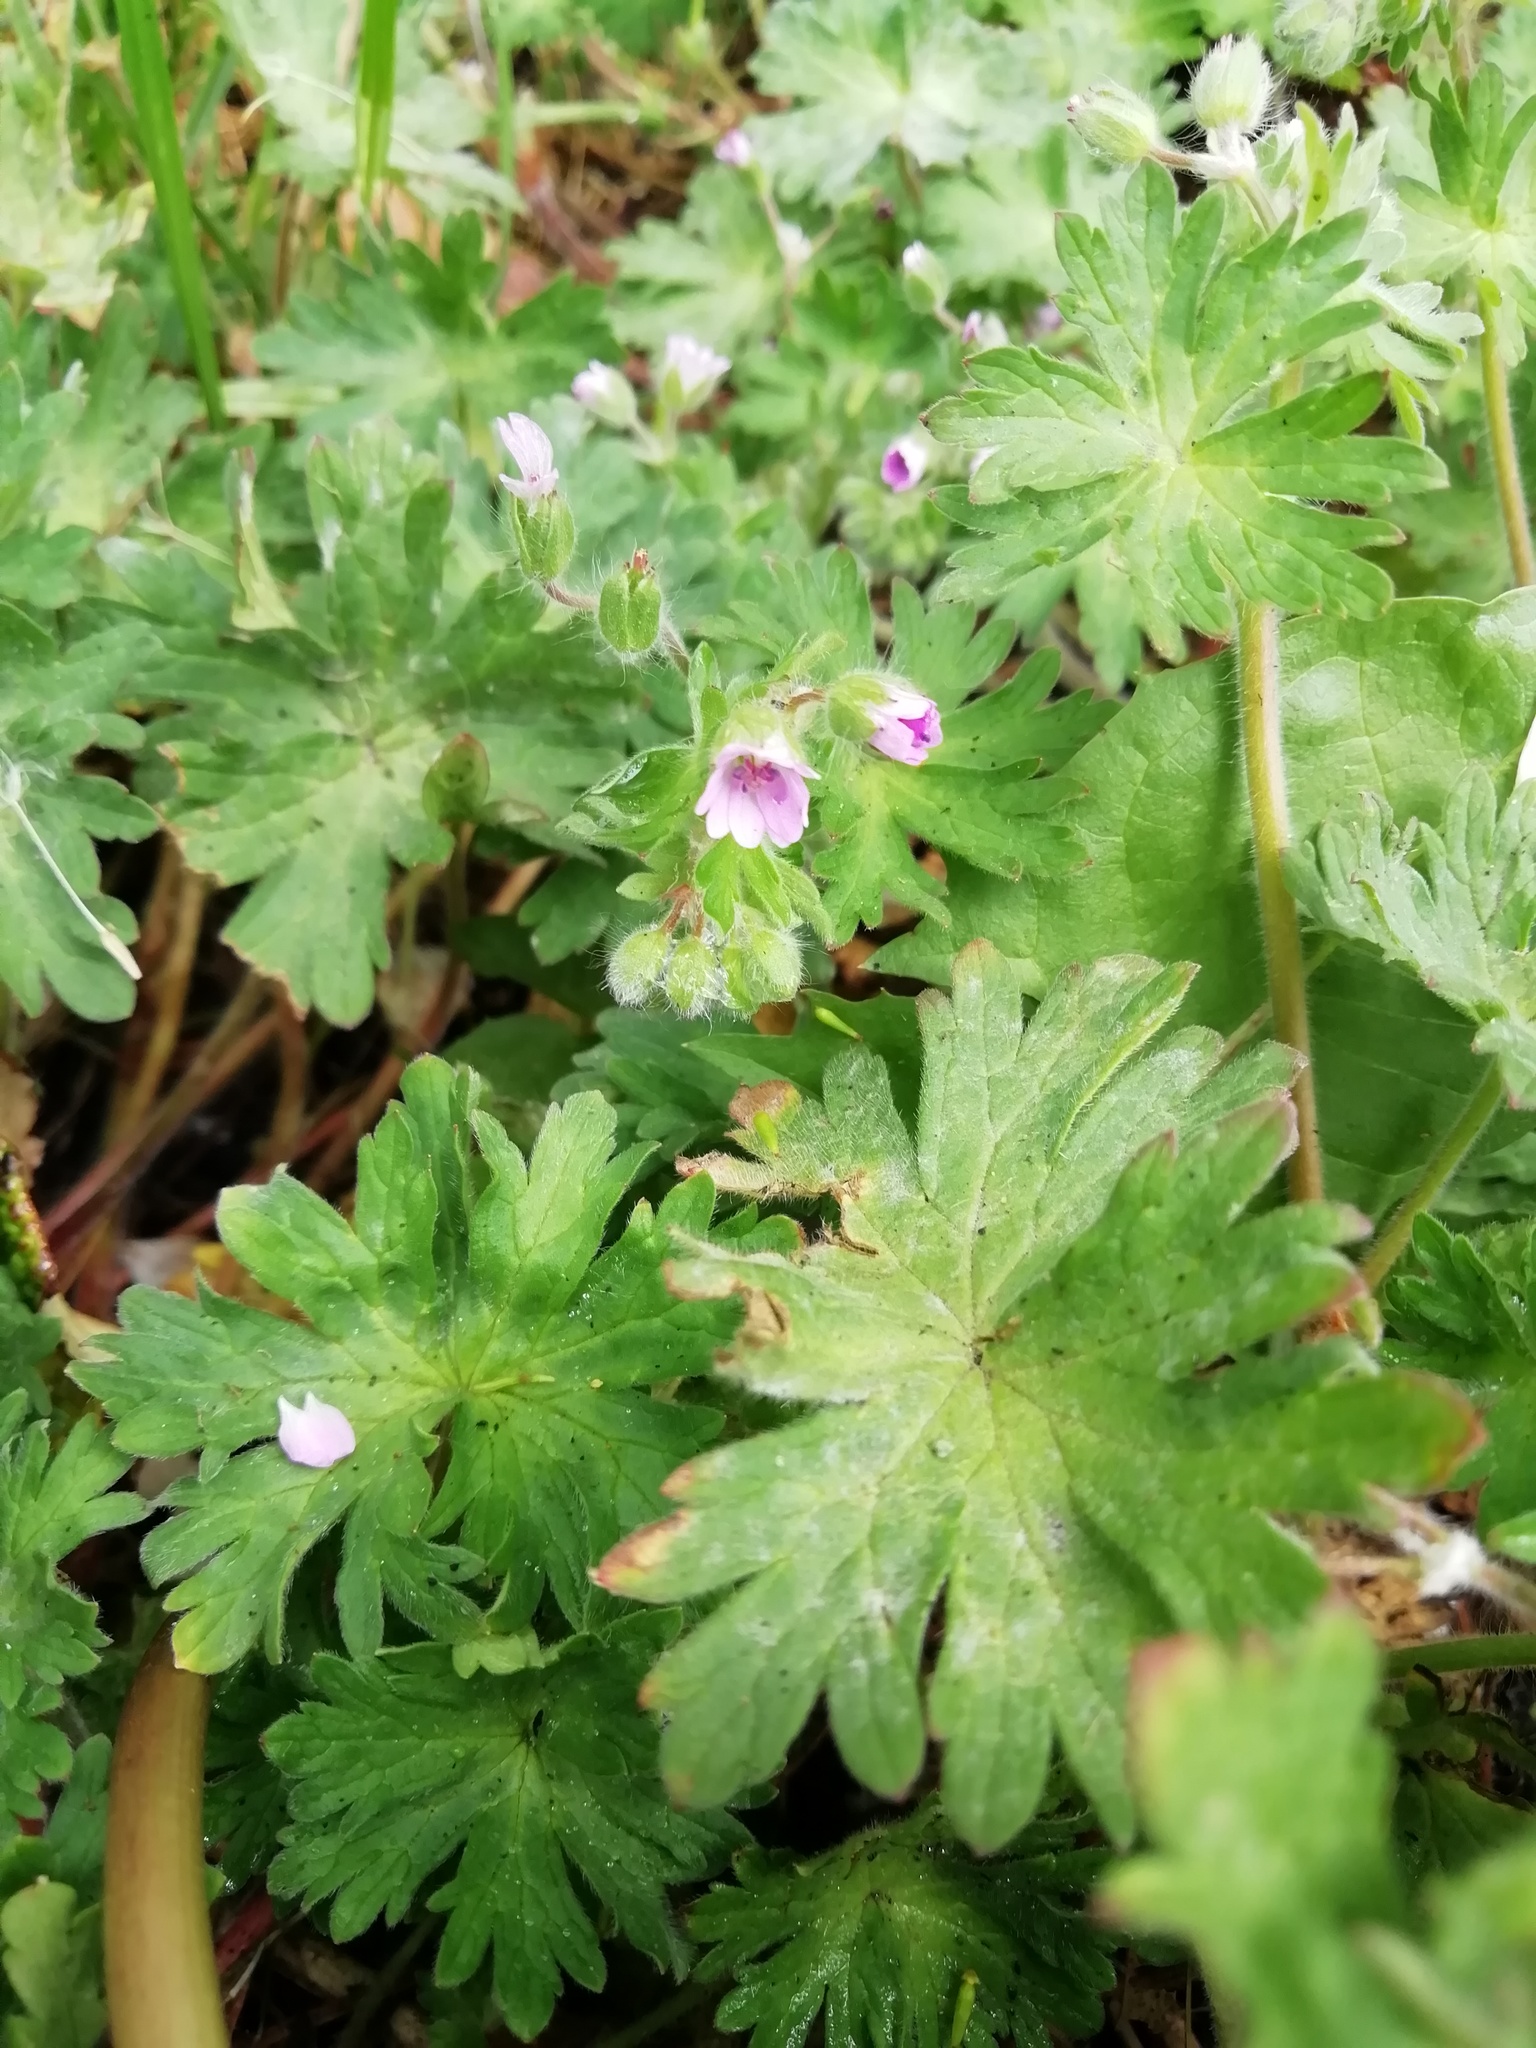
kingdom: Plantae
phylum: Tracheophyta
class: Magnoliopsida
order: Geraniales
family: Geraniaceae
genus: Geranium
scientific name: Geranium molle
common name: Dove's-foot crane's-bill
